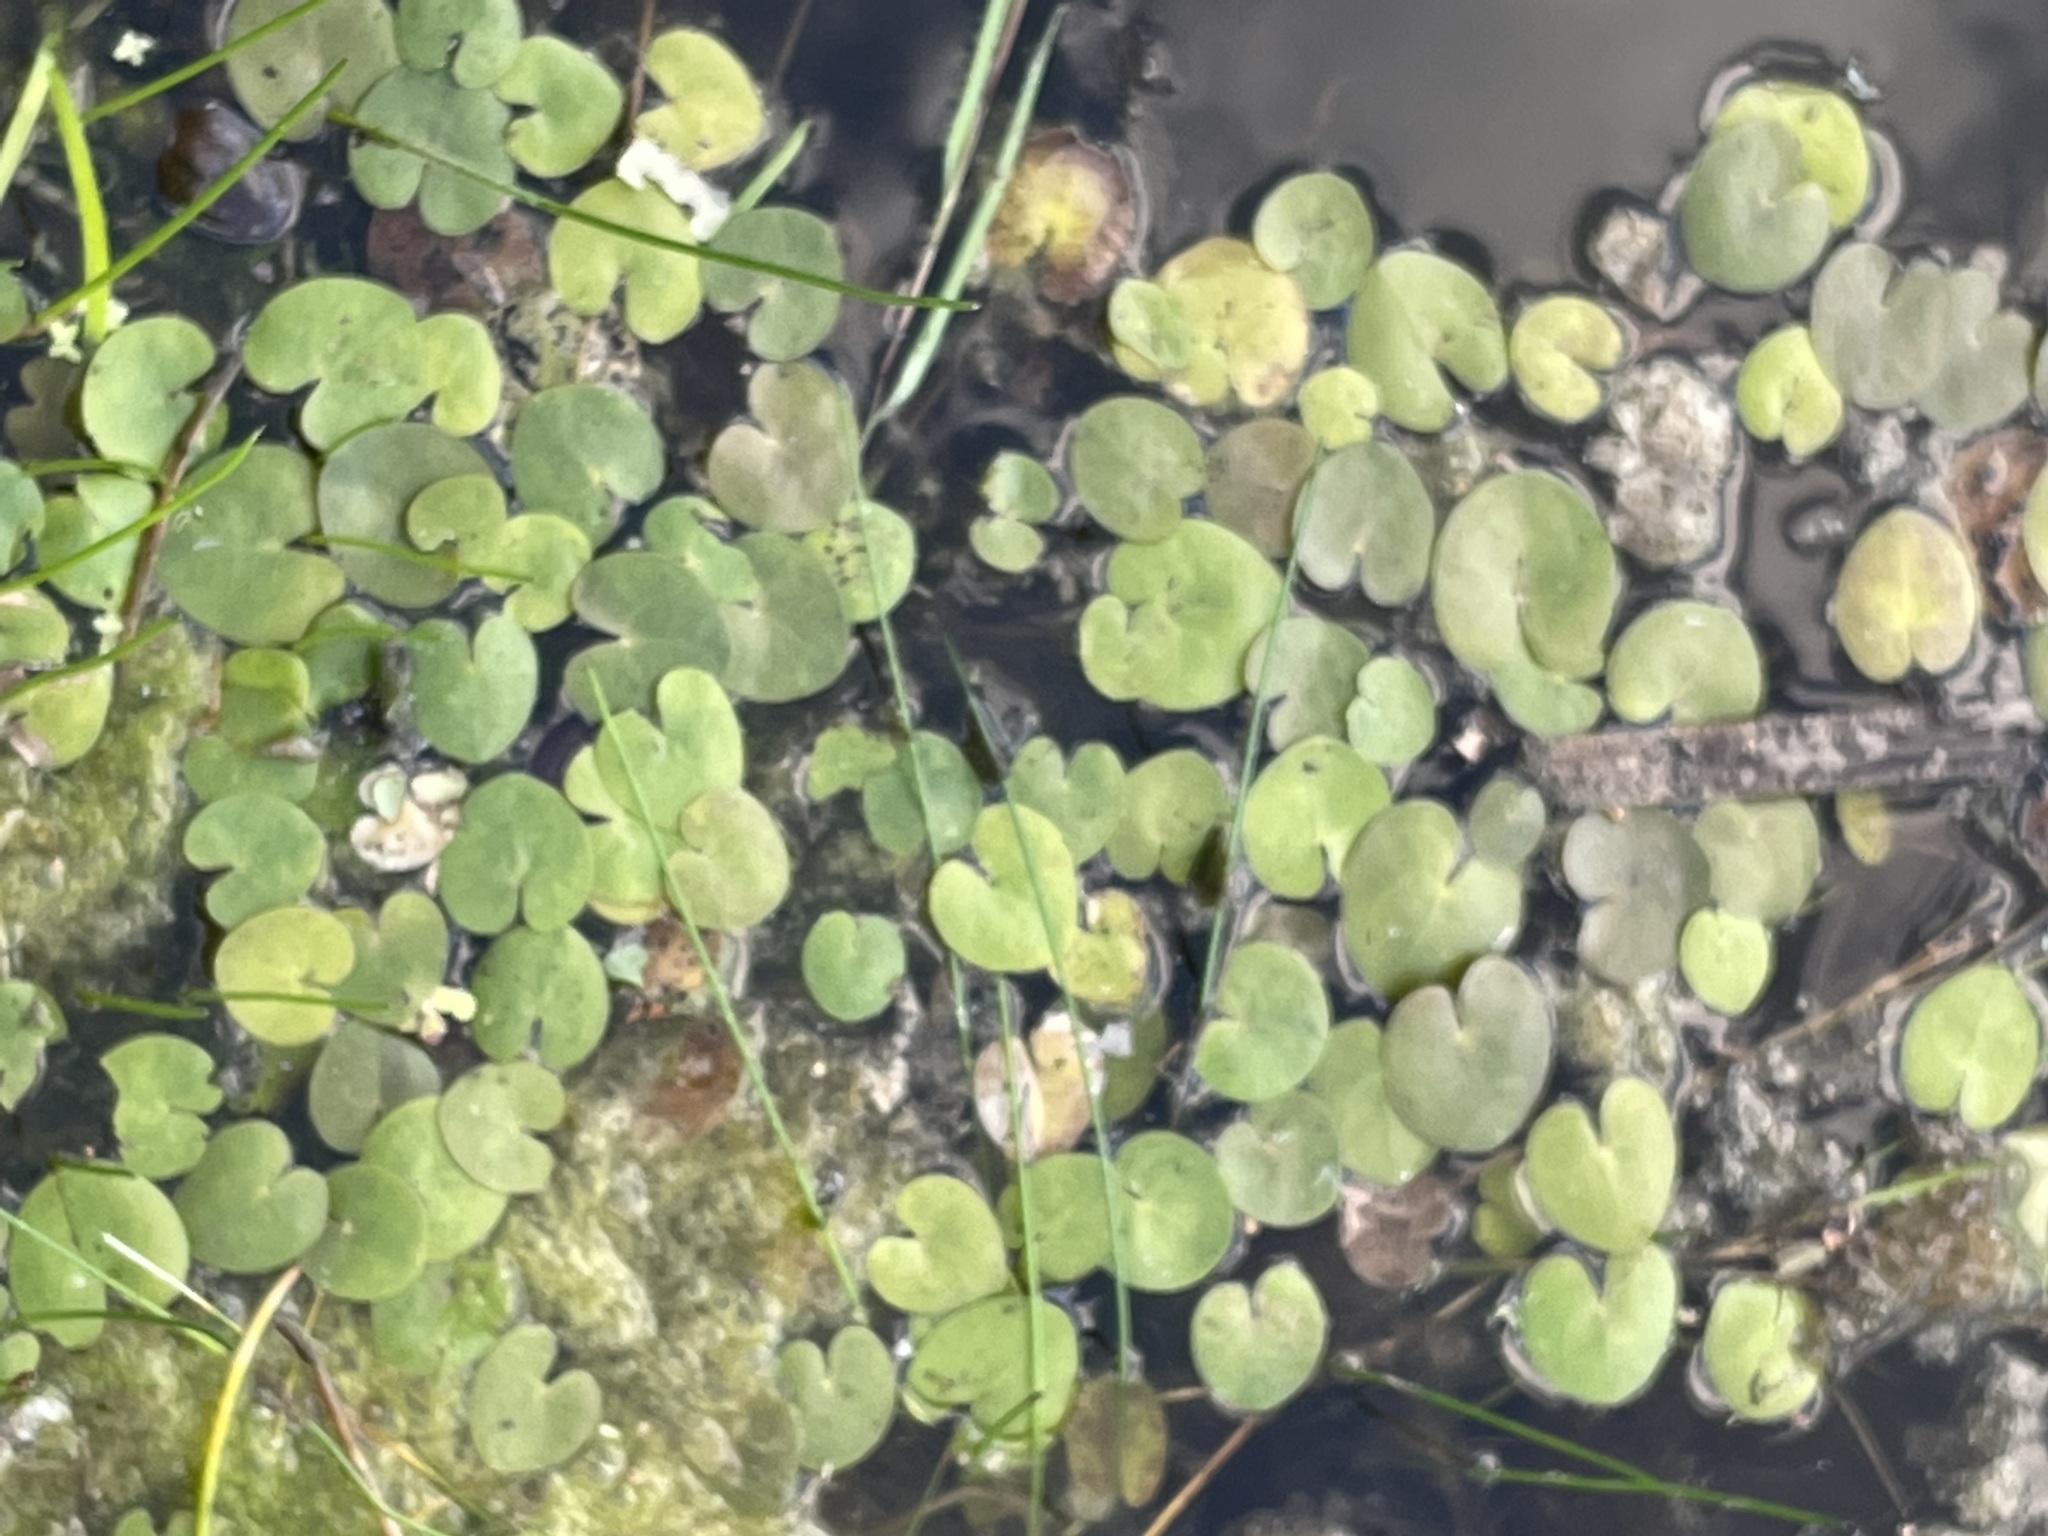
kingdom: Plantae
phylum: Tracheophyta
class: Liliopsida
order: Alismatales
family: Hydrocharitaceae
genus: Hydrocharis
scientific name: Hydrocharis morsus-ranae
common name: Frogbit
